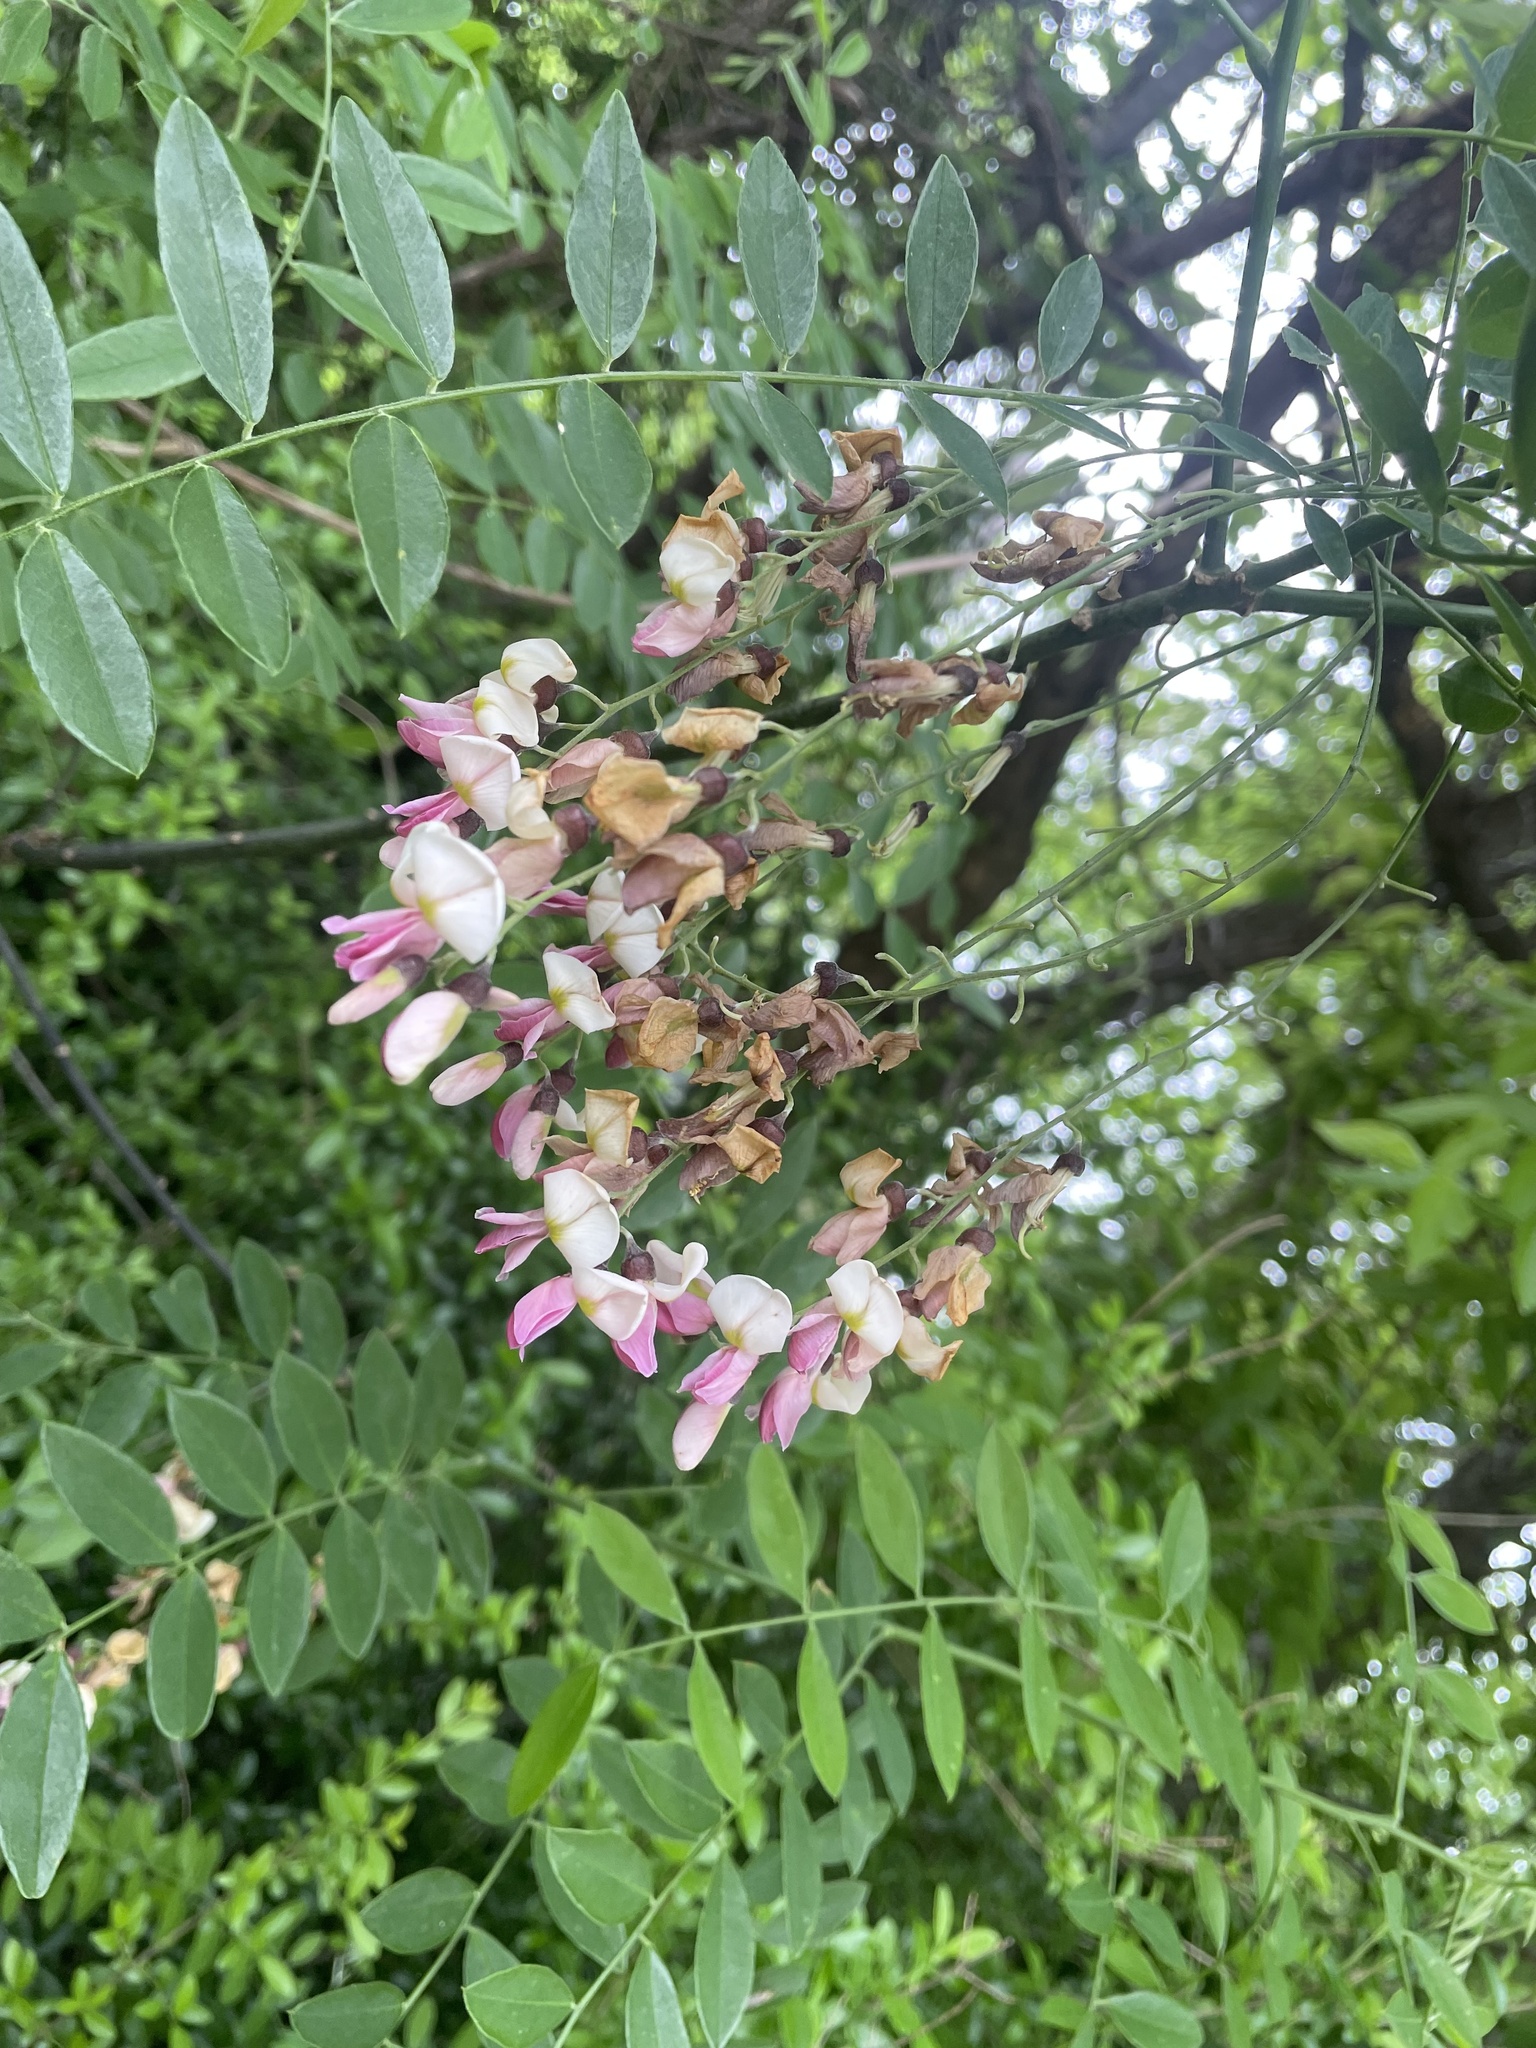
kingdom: Plantae
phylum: Tracheophyta
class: Magnoliopsida
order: Fabales
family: Fabaceae
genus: Styphnolobium
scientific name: Styphnolobium affine
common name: Texas sophora
